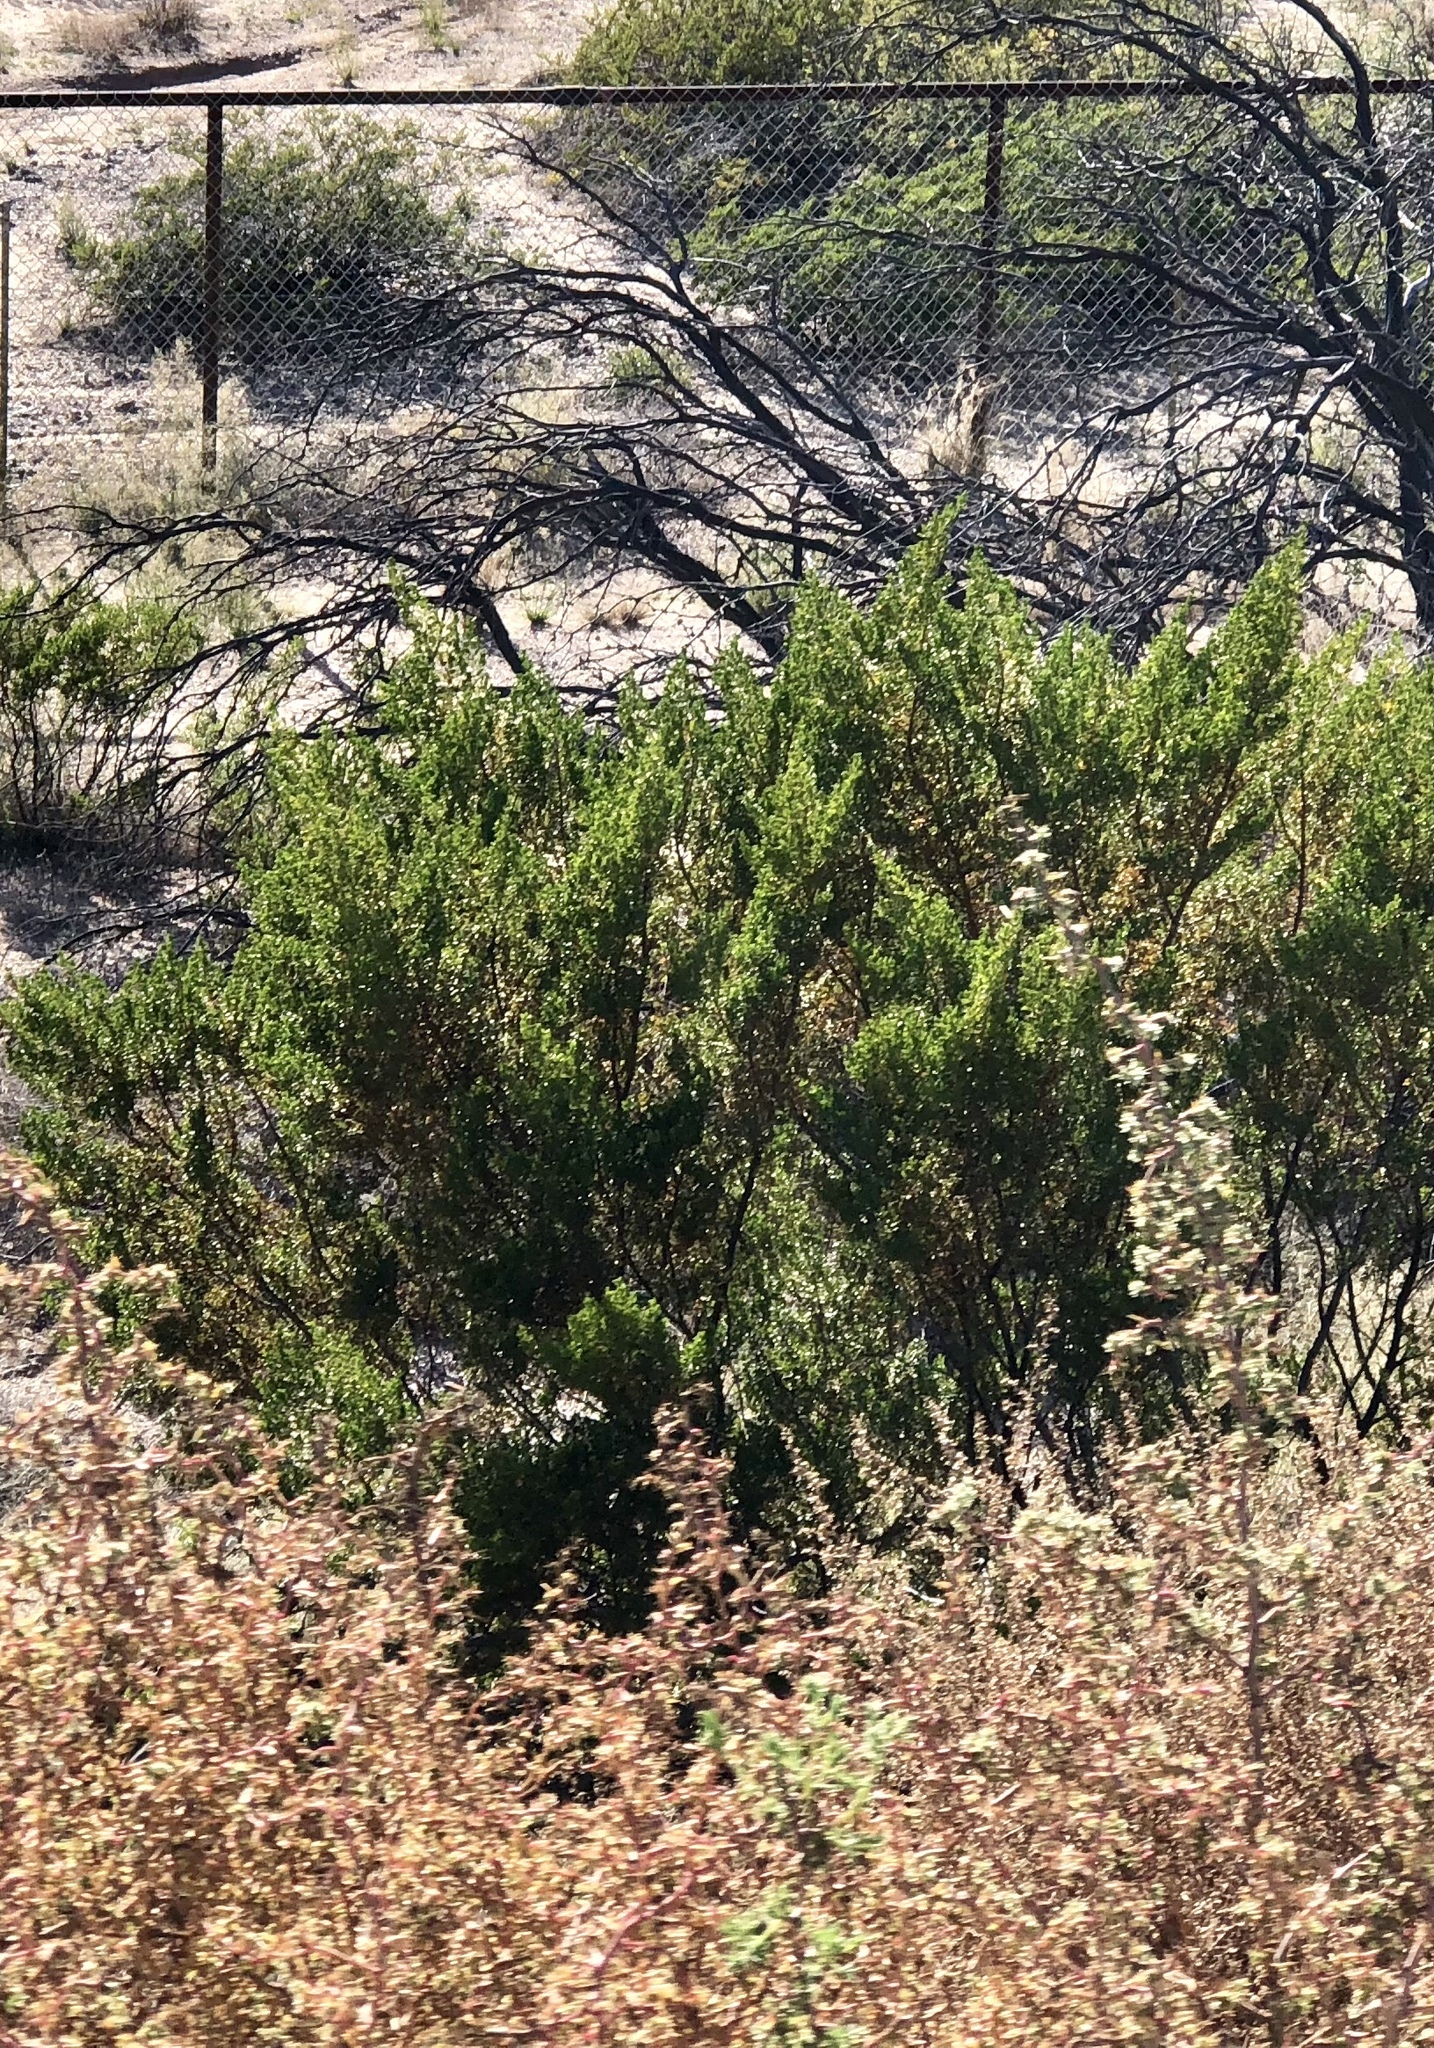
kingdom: Plantae
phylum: Tracheophyta
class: Magnoliopsida
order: Zygophyllales
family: Zygophyllaceae
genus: Larrea
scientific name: Larrea tridentata
